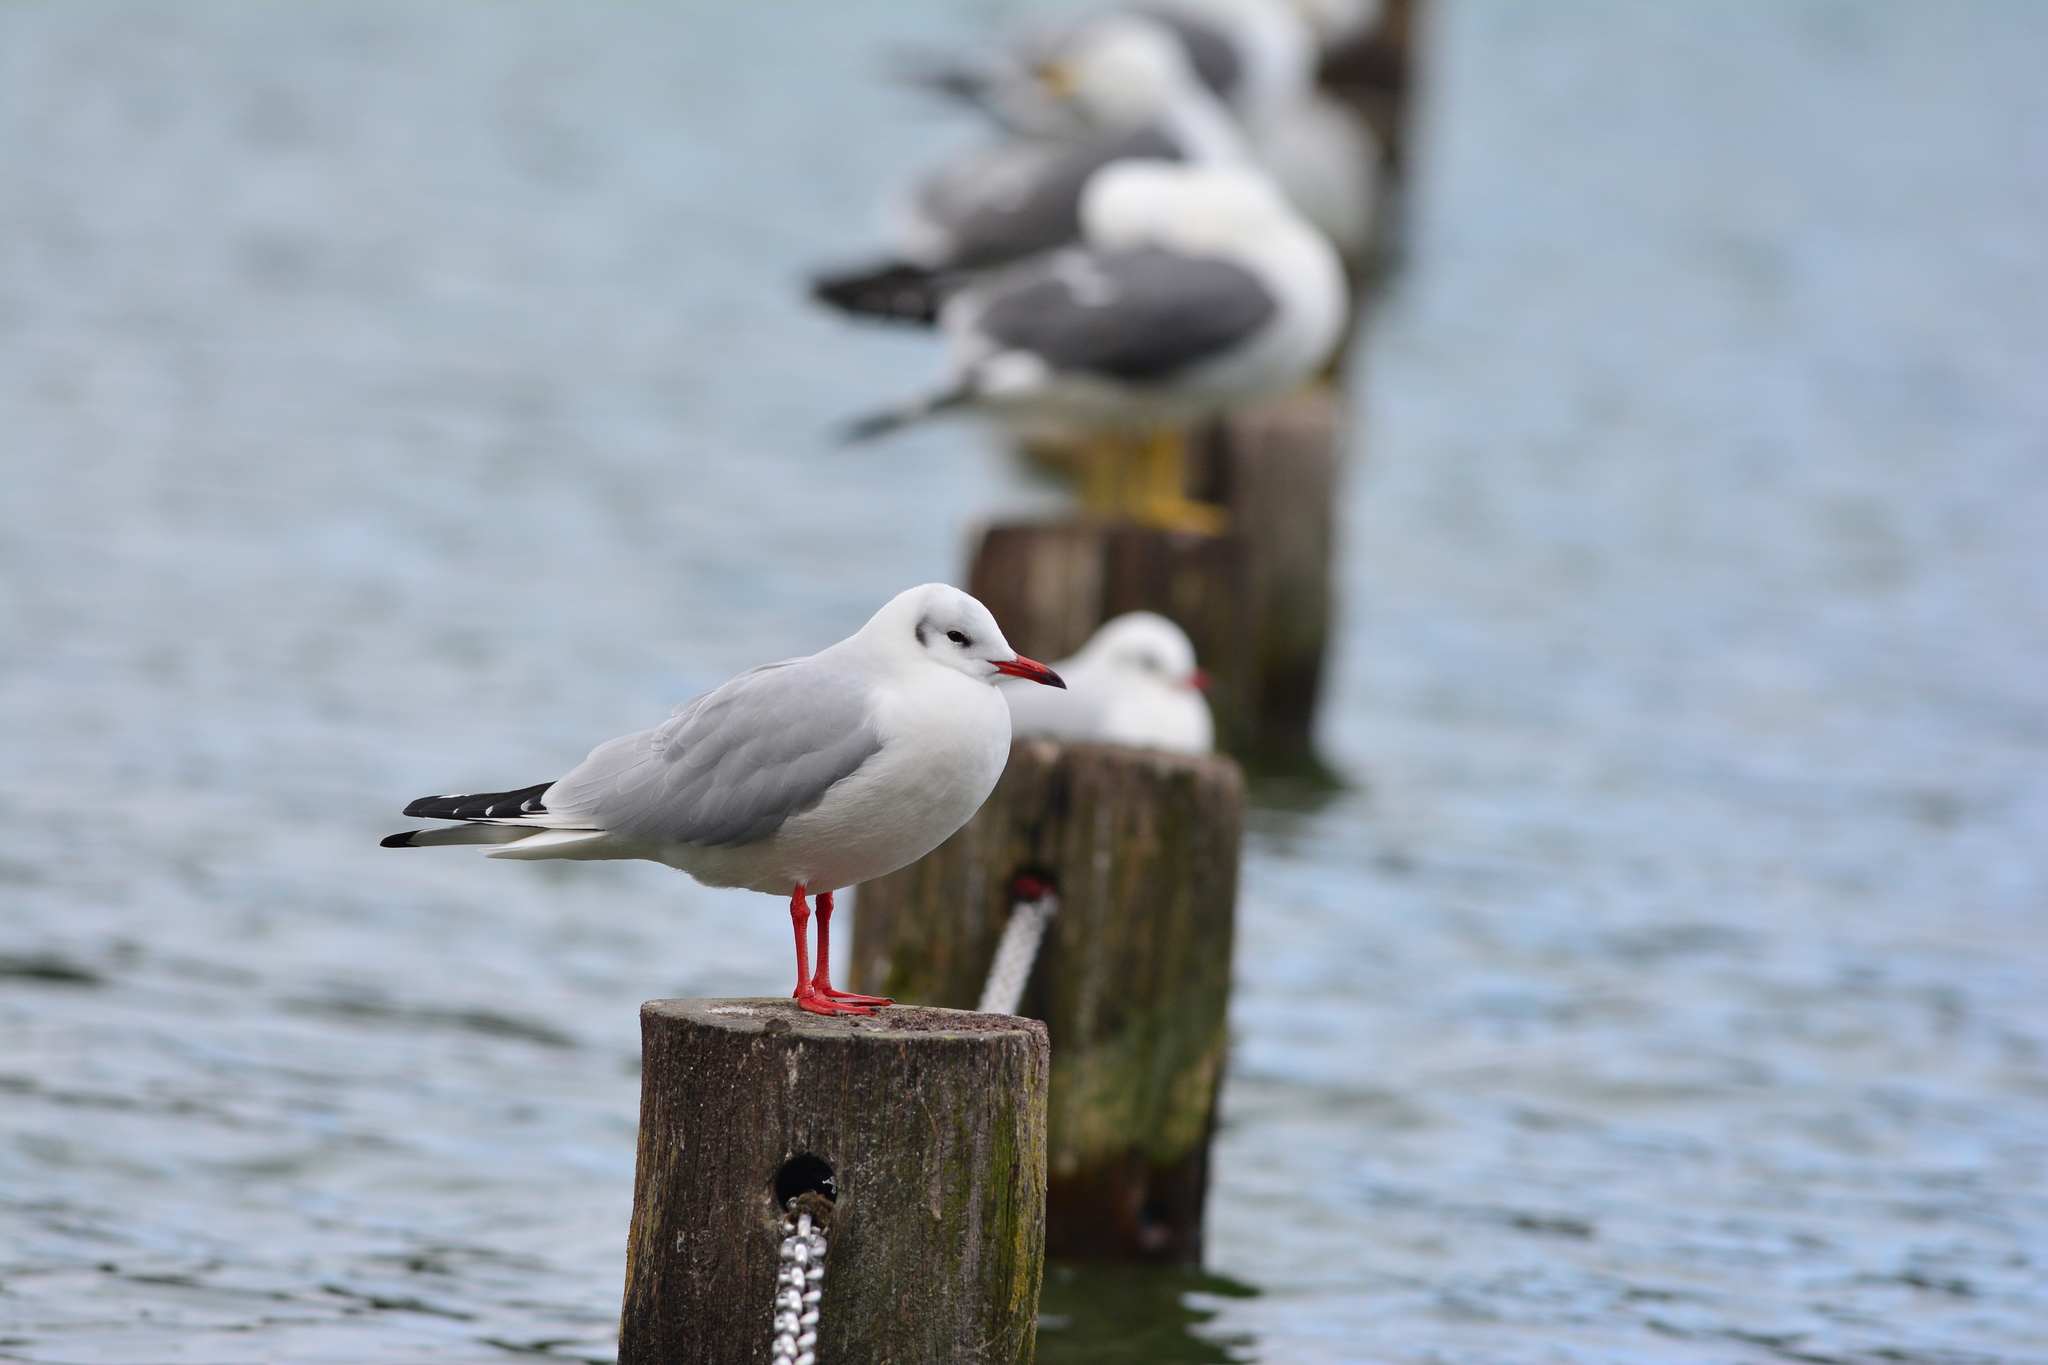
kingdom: Animalia
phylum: Chordata
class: Aves
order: Charadriiformes
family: Laridae
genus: Chroicocephalus
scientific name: Chroicocephalus ridibundus
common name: Black-headed gull
